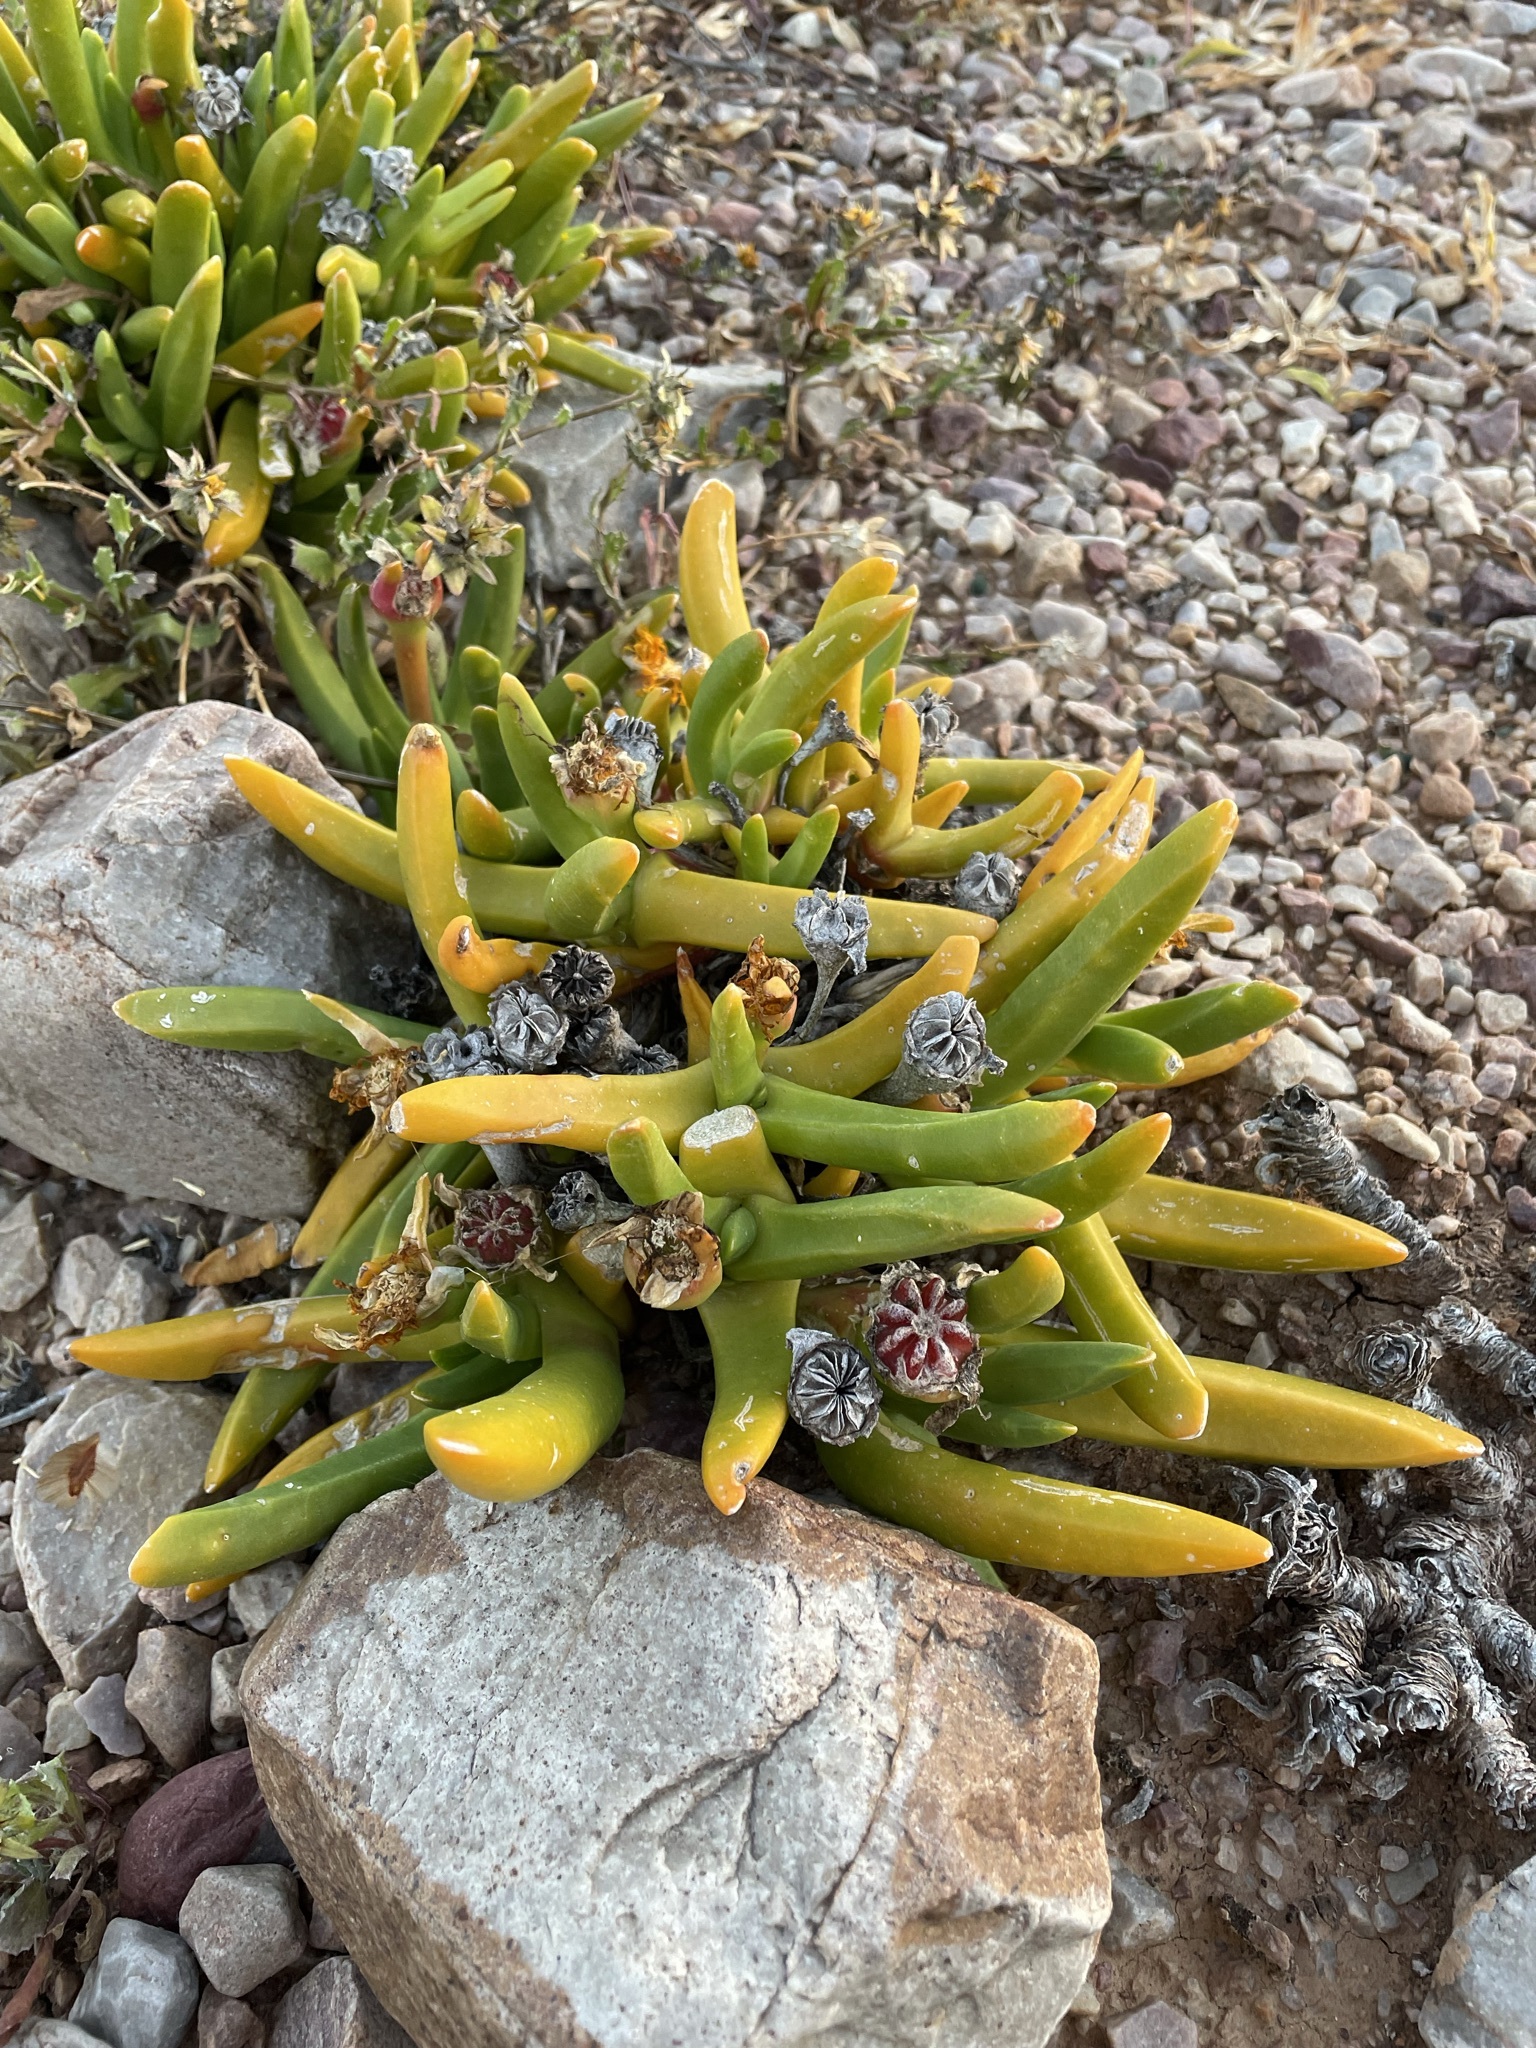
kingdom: Plantae
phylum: Tracheophyta
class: Magnoliopsida
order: Caryophyllales
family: Aizoaceae
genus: Glottiphyllum
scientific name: Glottiphyllum regium
